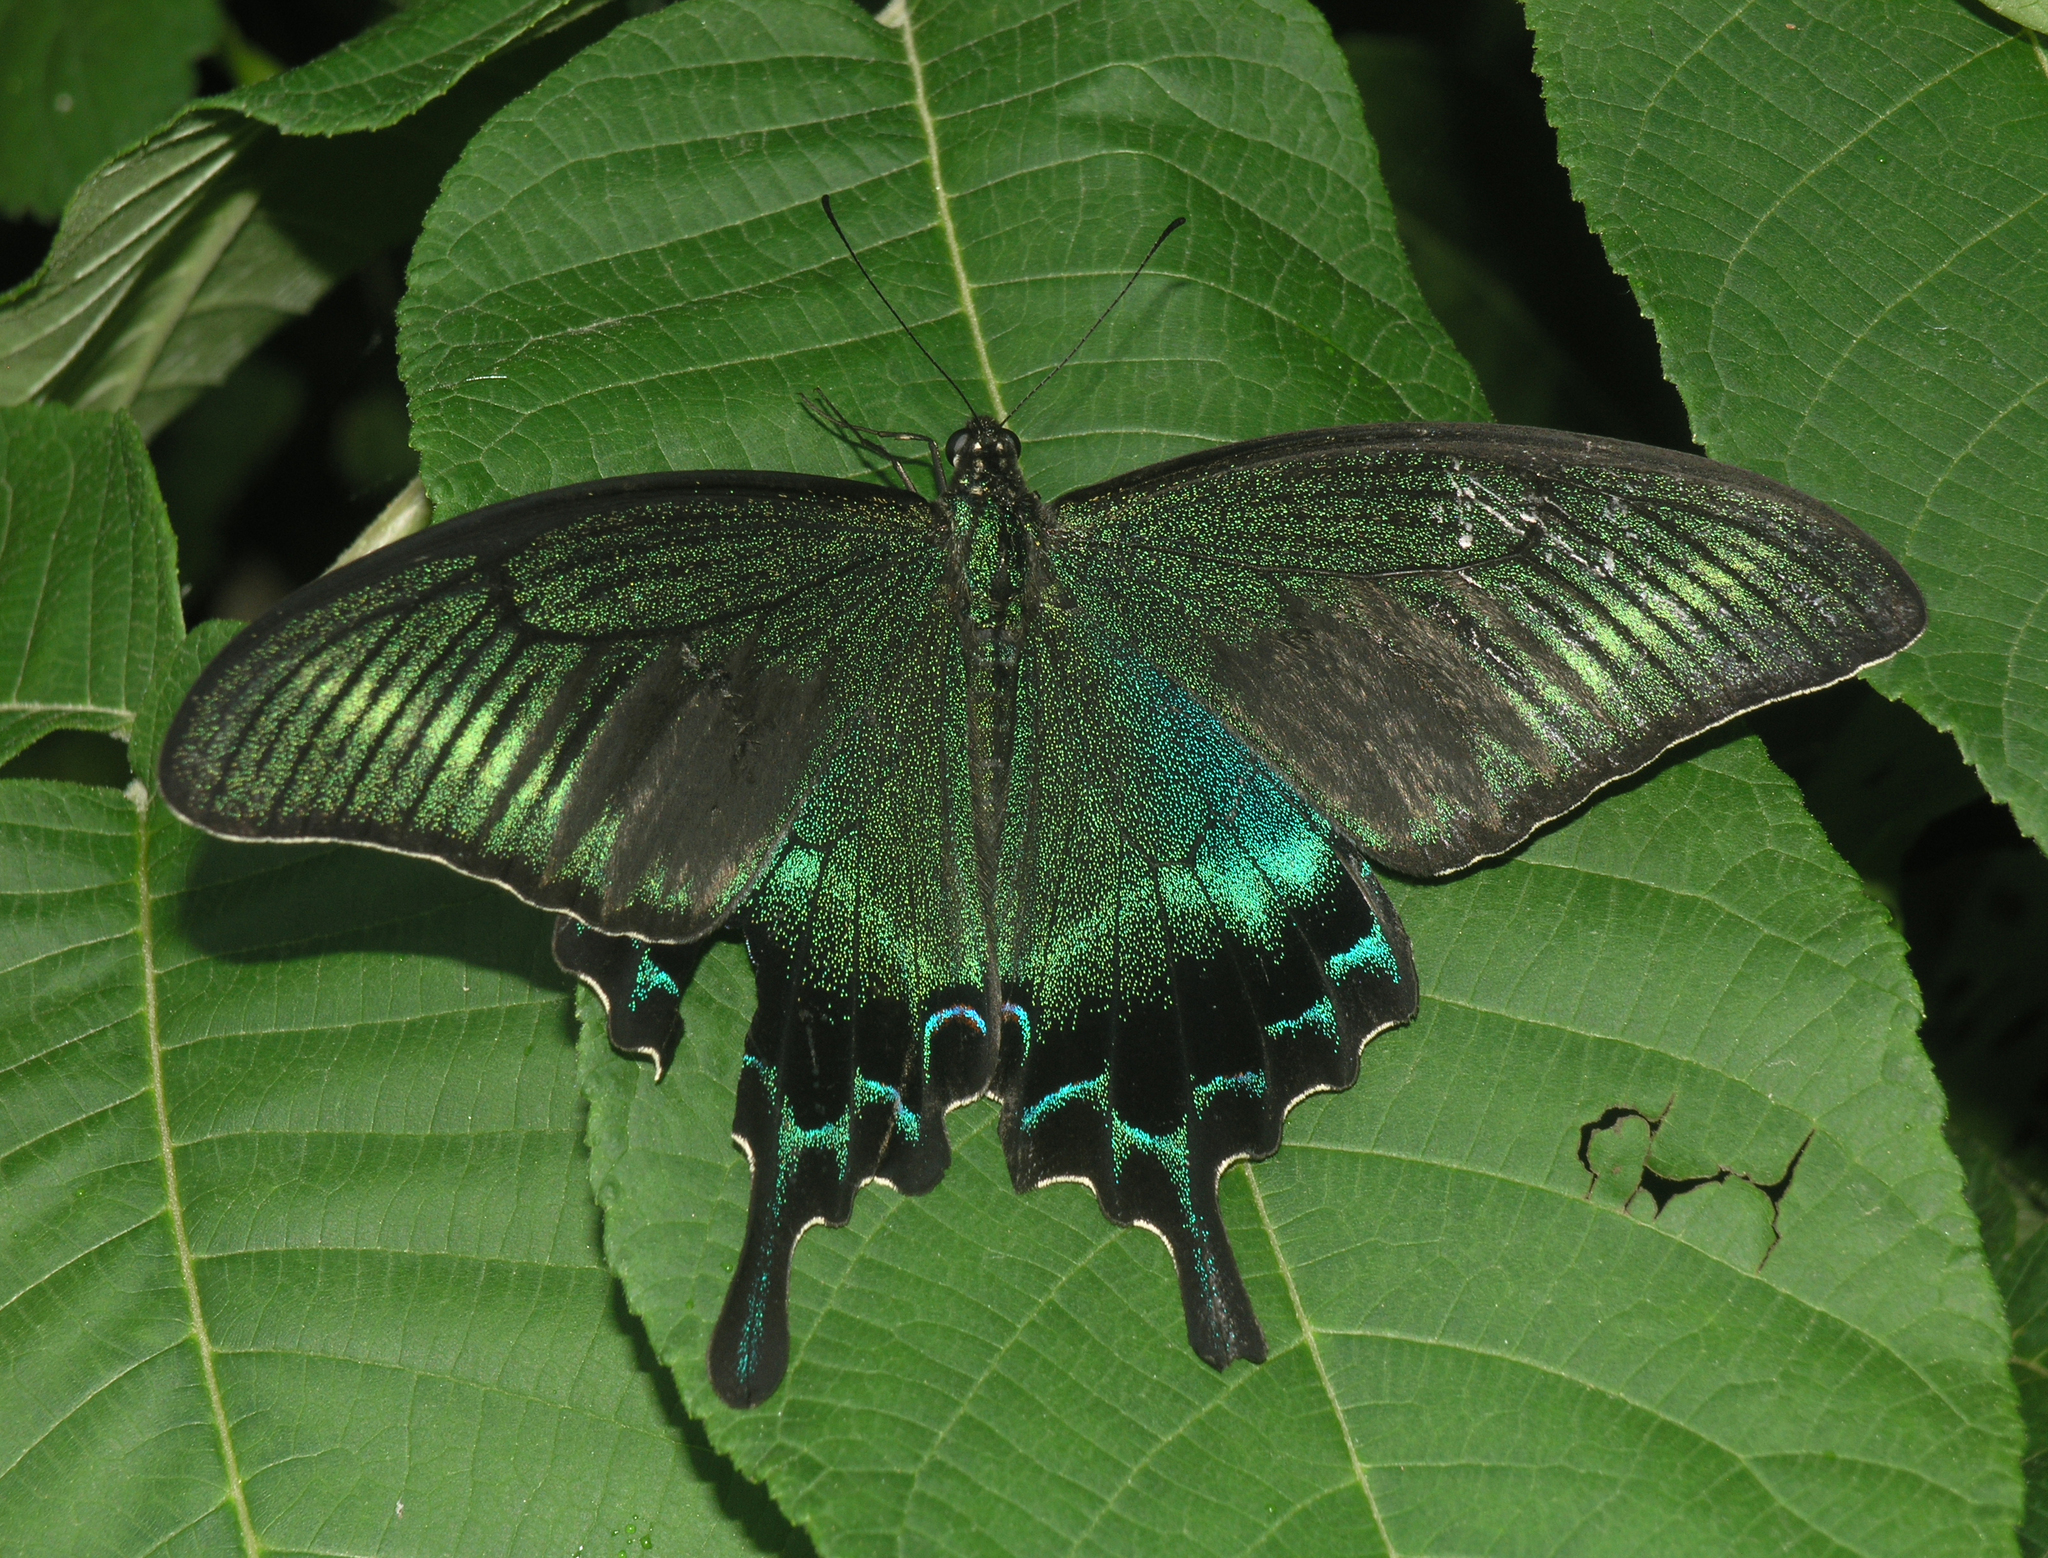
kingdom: Animalia
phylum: Arthropoda
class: Insecta
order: Lepidoptera
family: Papilionidae
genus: Papilio
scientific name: Papilio maackii
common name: Alpine black swallowtail
